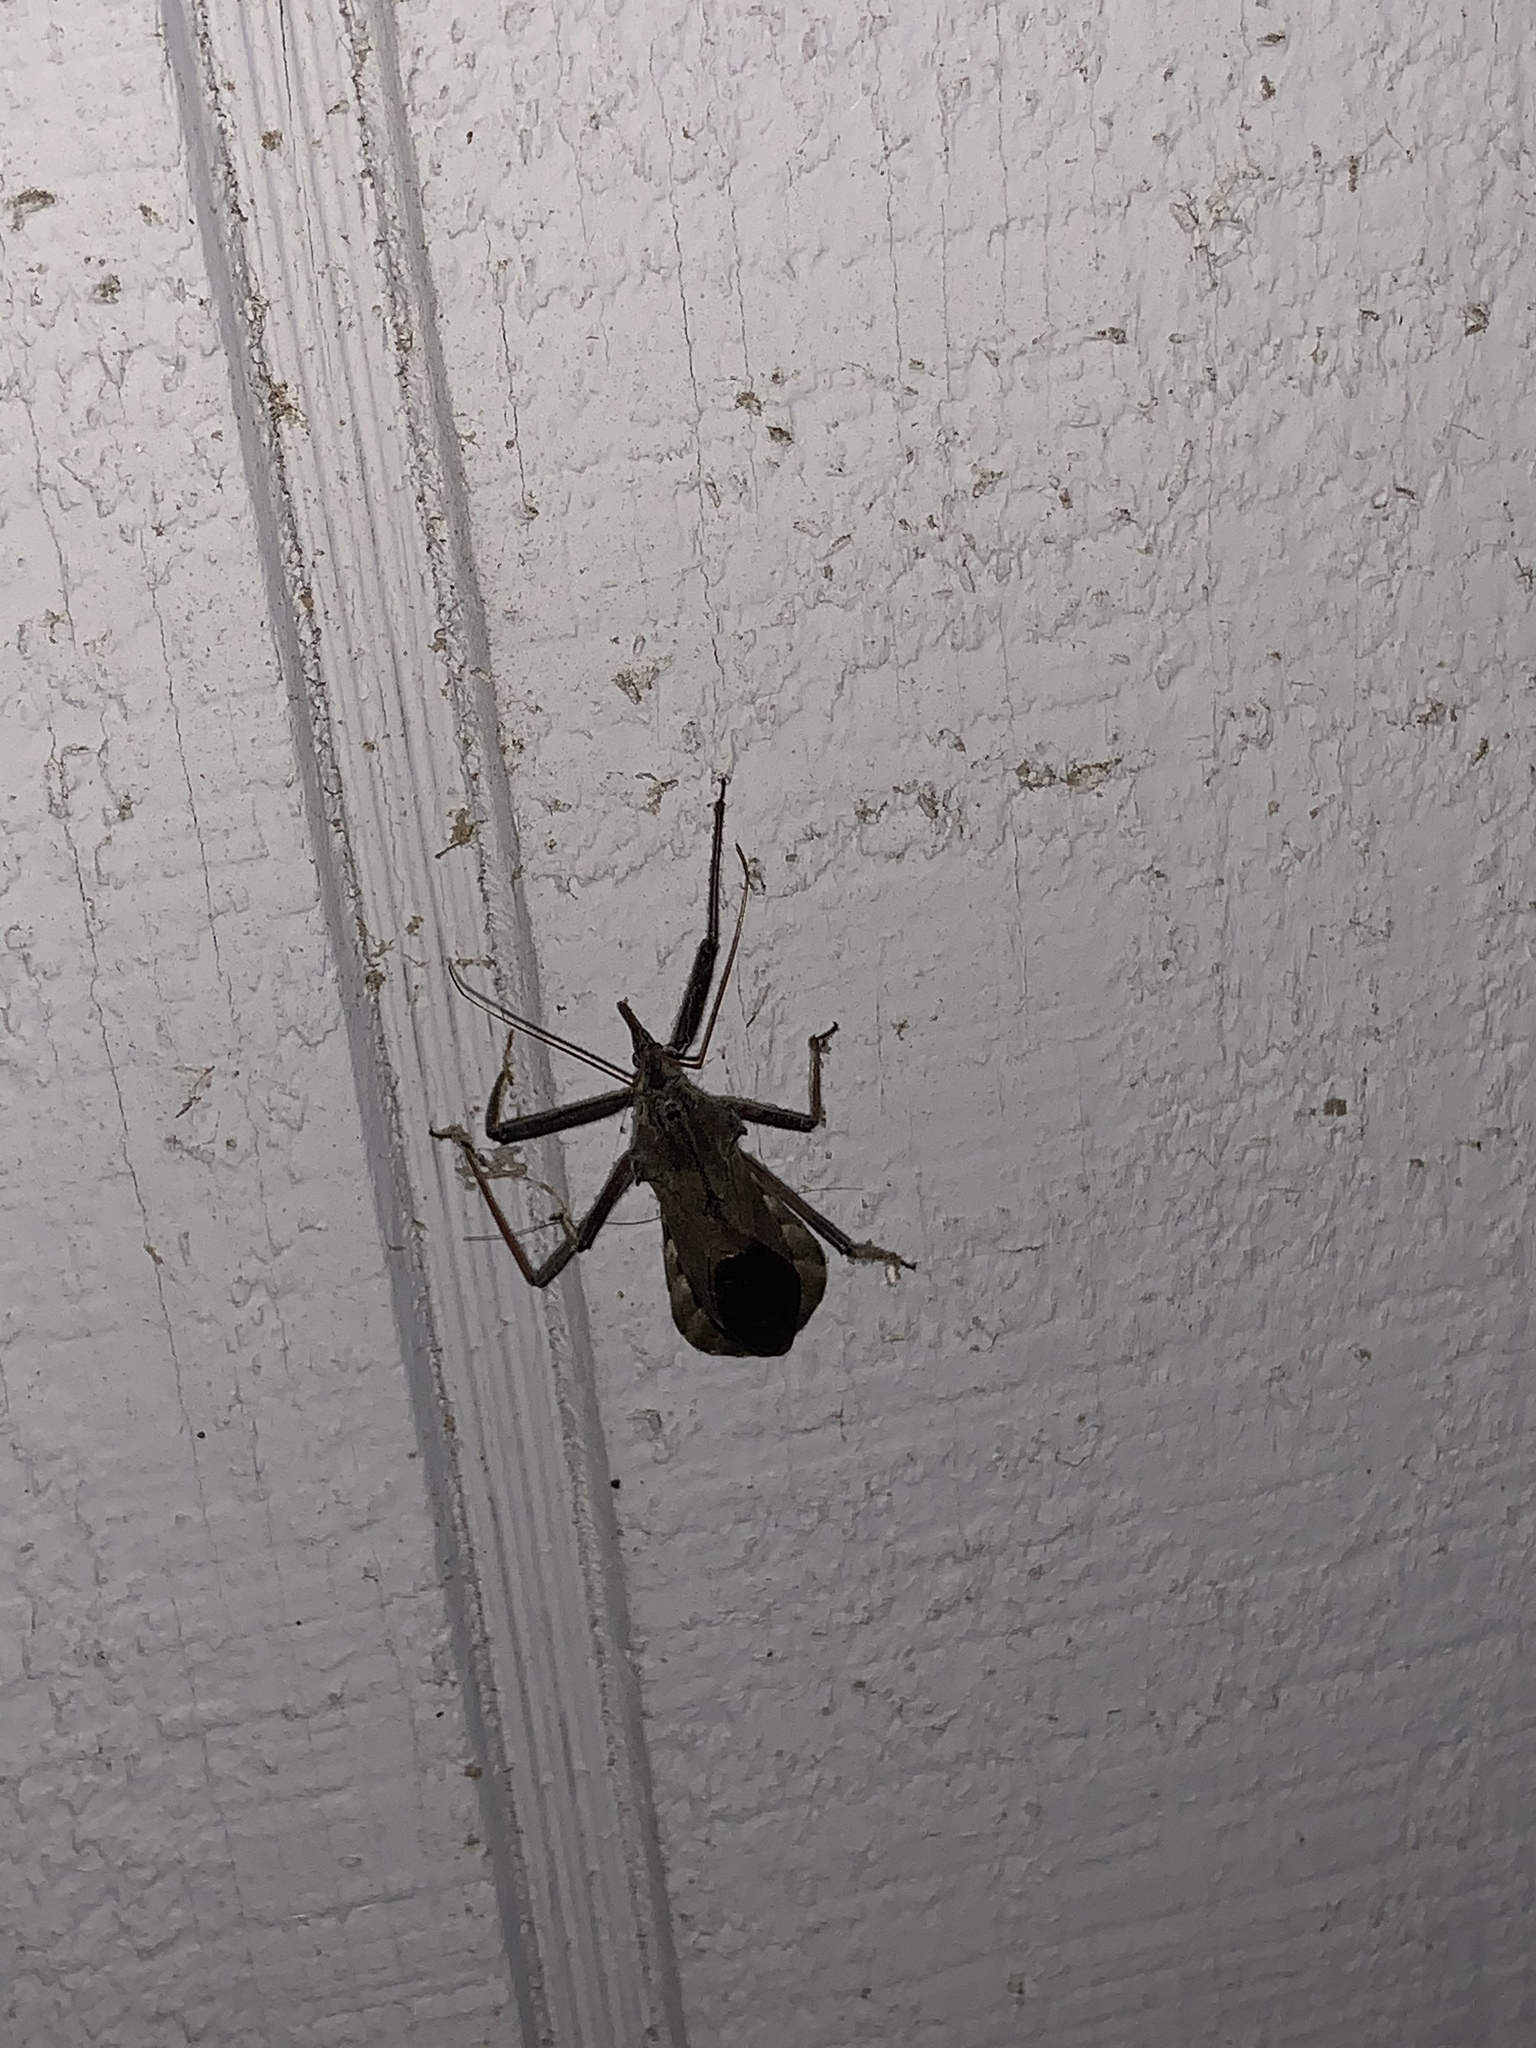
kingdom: Animalia
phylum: Arthropoda
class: Insecta
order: Hemiptera
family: Reduviidae
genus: Arilus
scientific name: Arilus cristatus
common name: North american wheel bug
